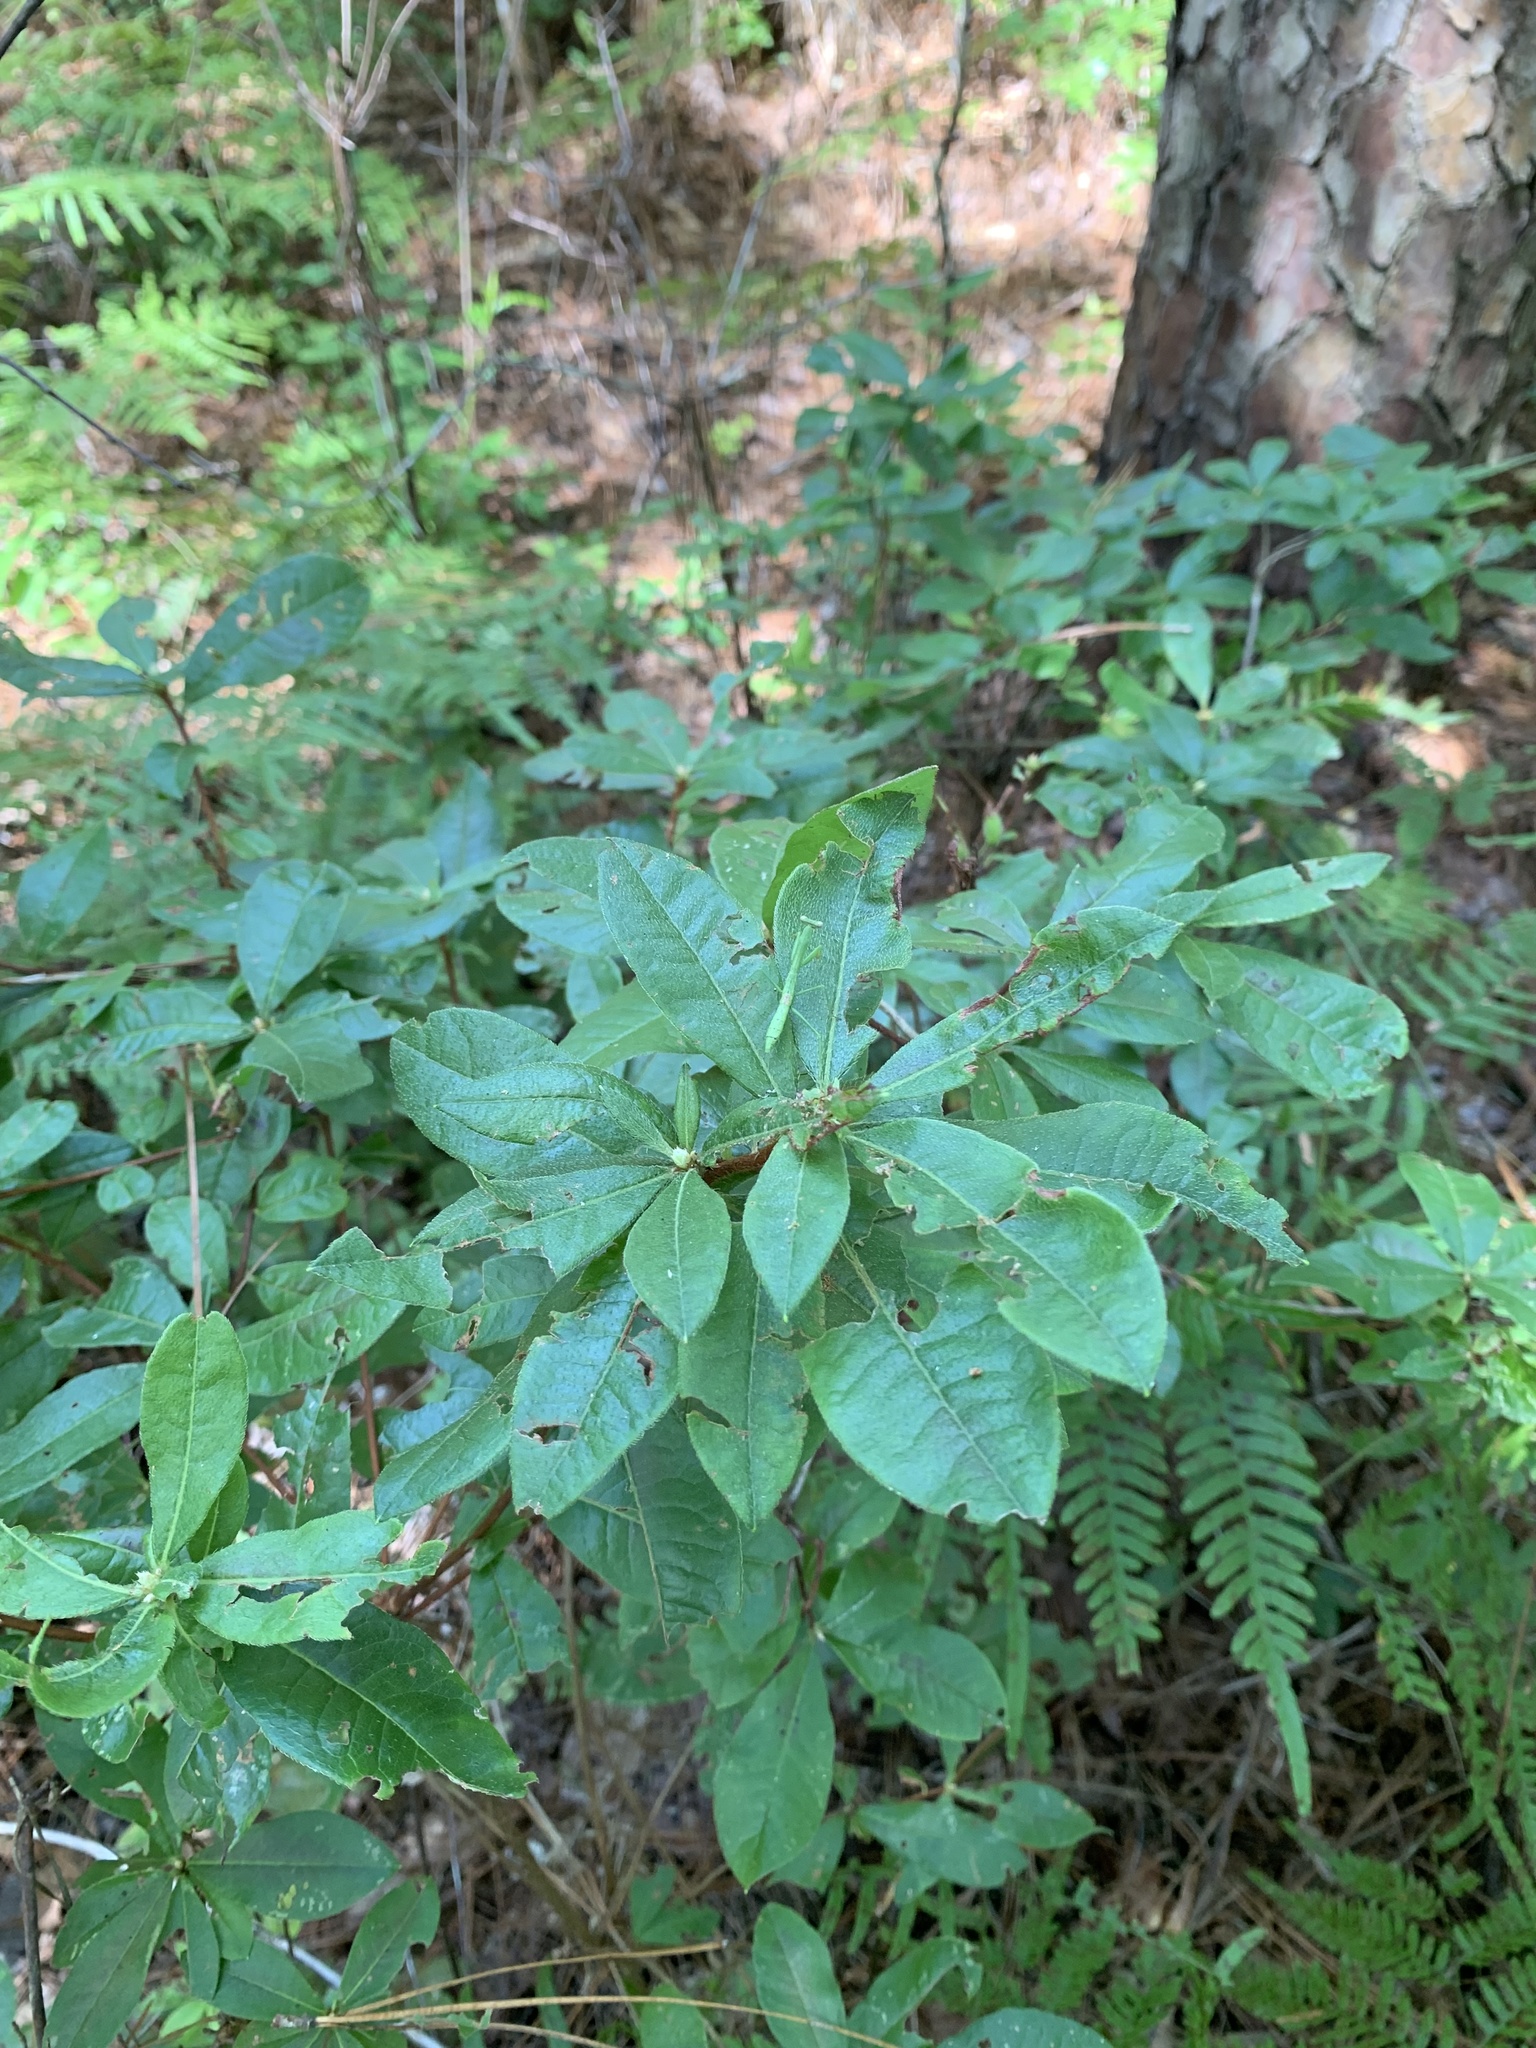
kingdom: Plantae
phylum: Tracheophyta
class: Magnoliopsida
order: Ericales
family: Ericaceae
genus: Rhododendron
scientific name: Rhododendron viscosum
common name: Clammy azalea
